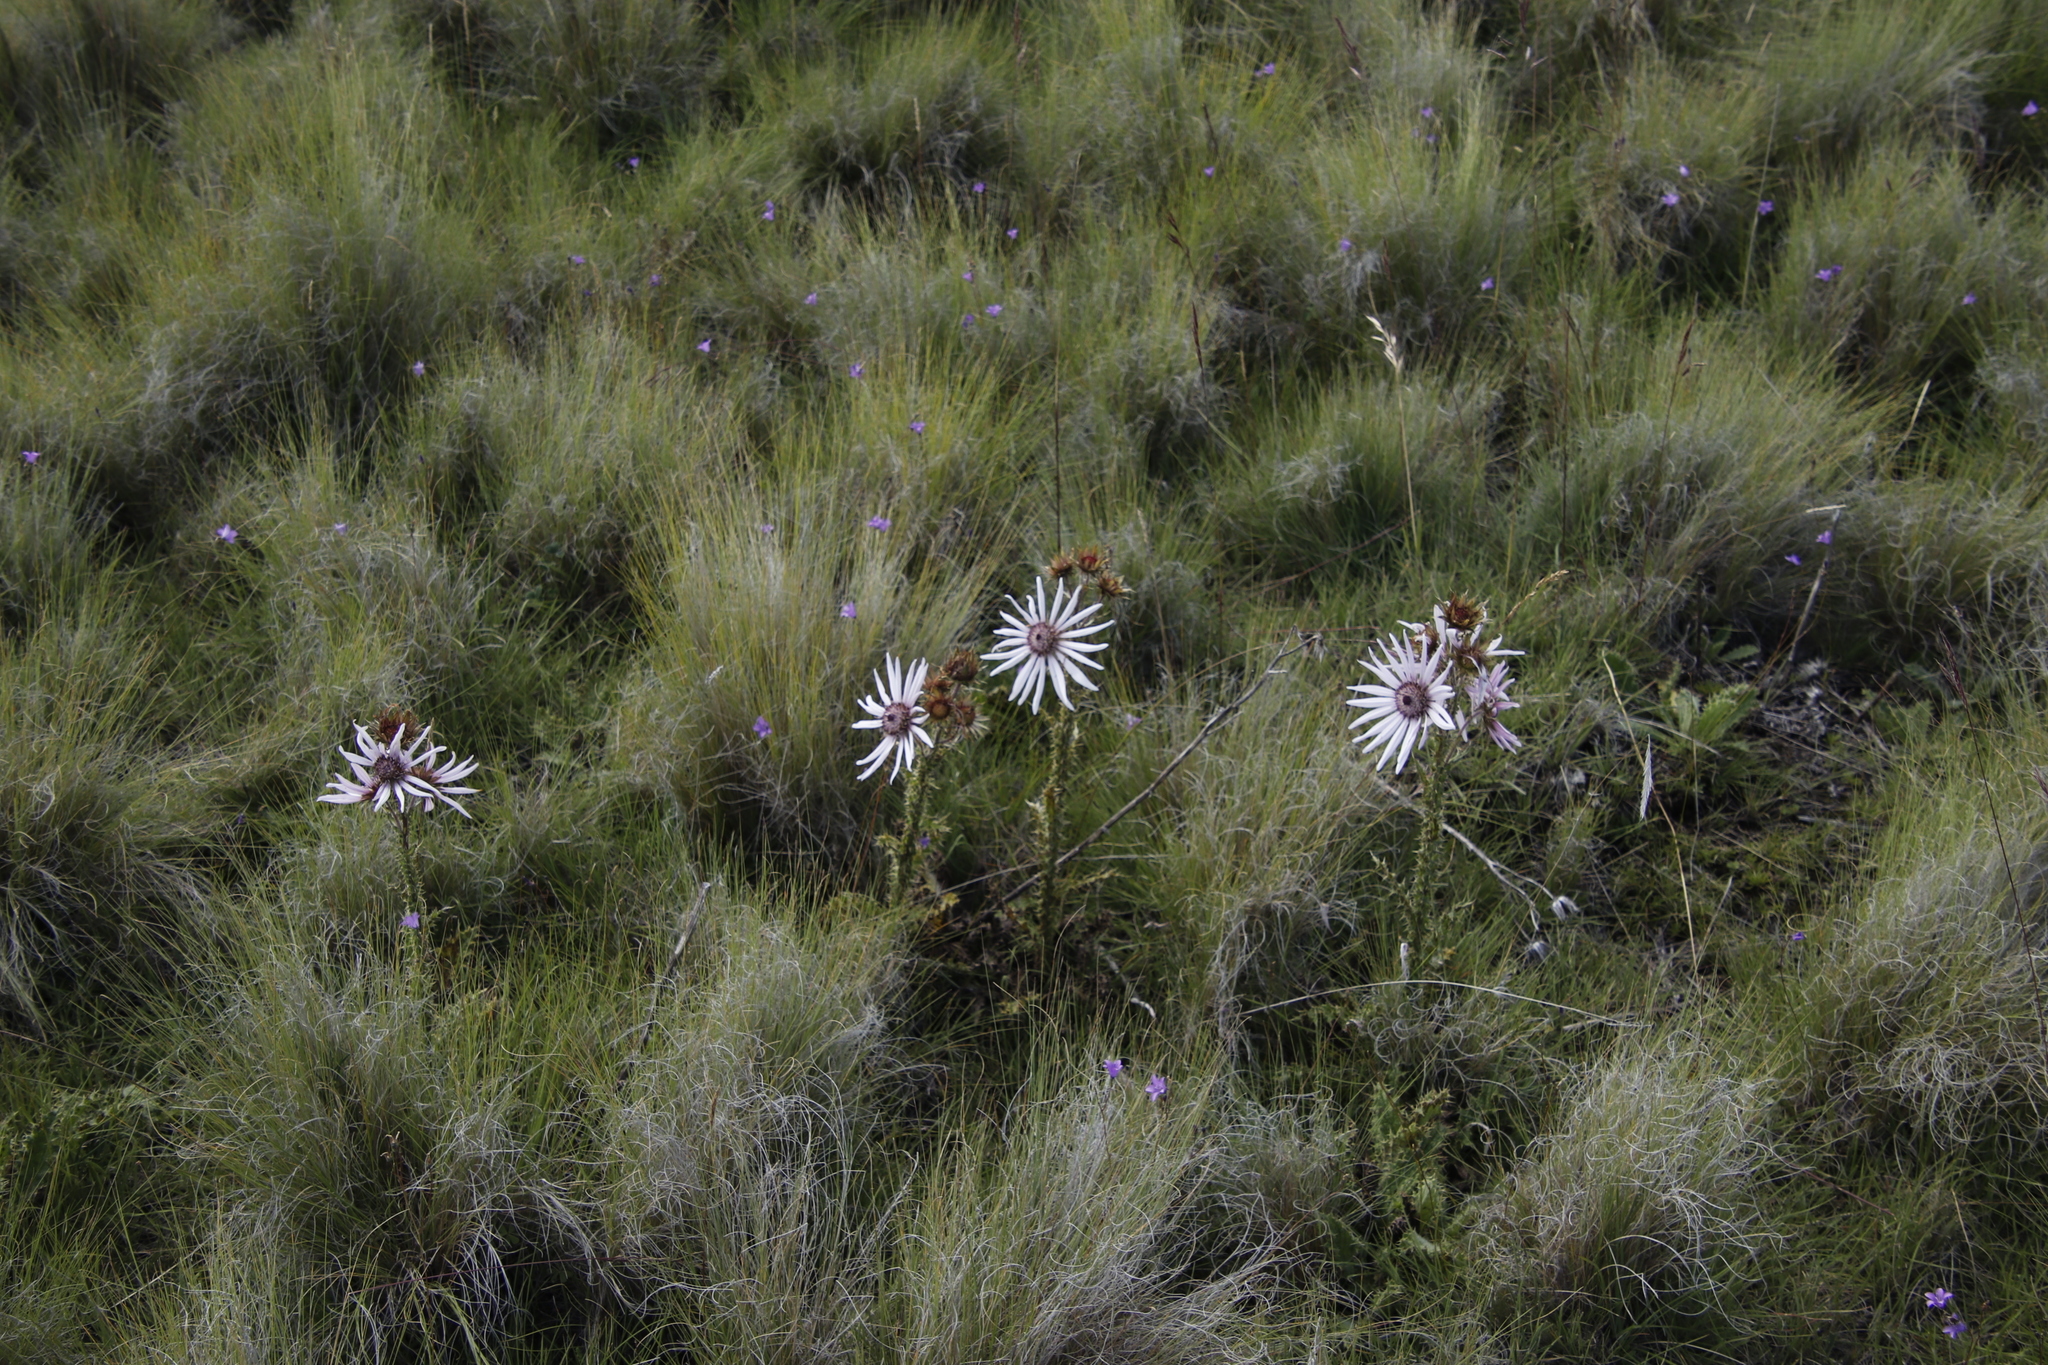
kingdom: Plantae
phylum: Tracheophyta
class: Magnoliopsida
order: Asterales
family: Asteraceae
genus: Berkheya
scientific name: Berkheya purpurea
